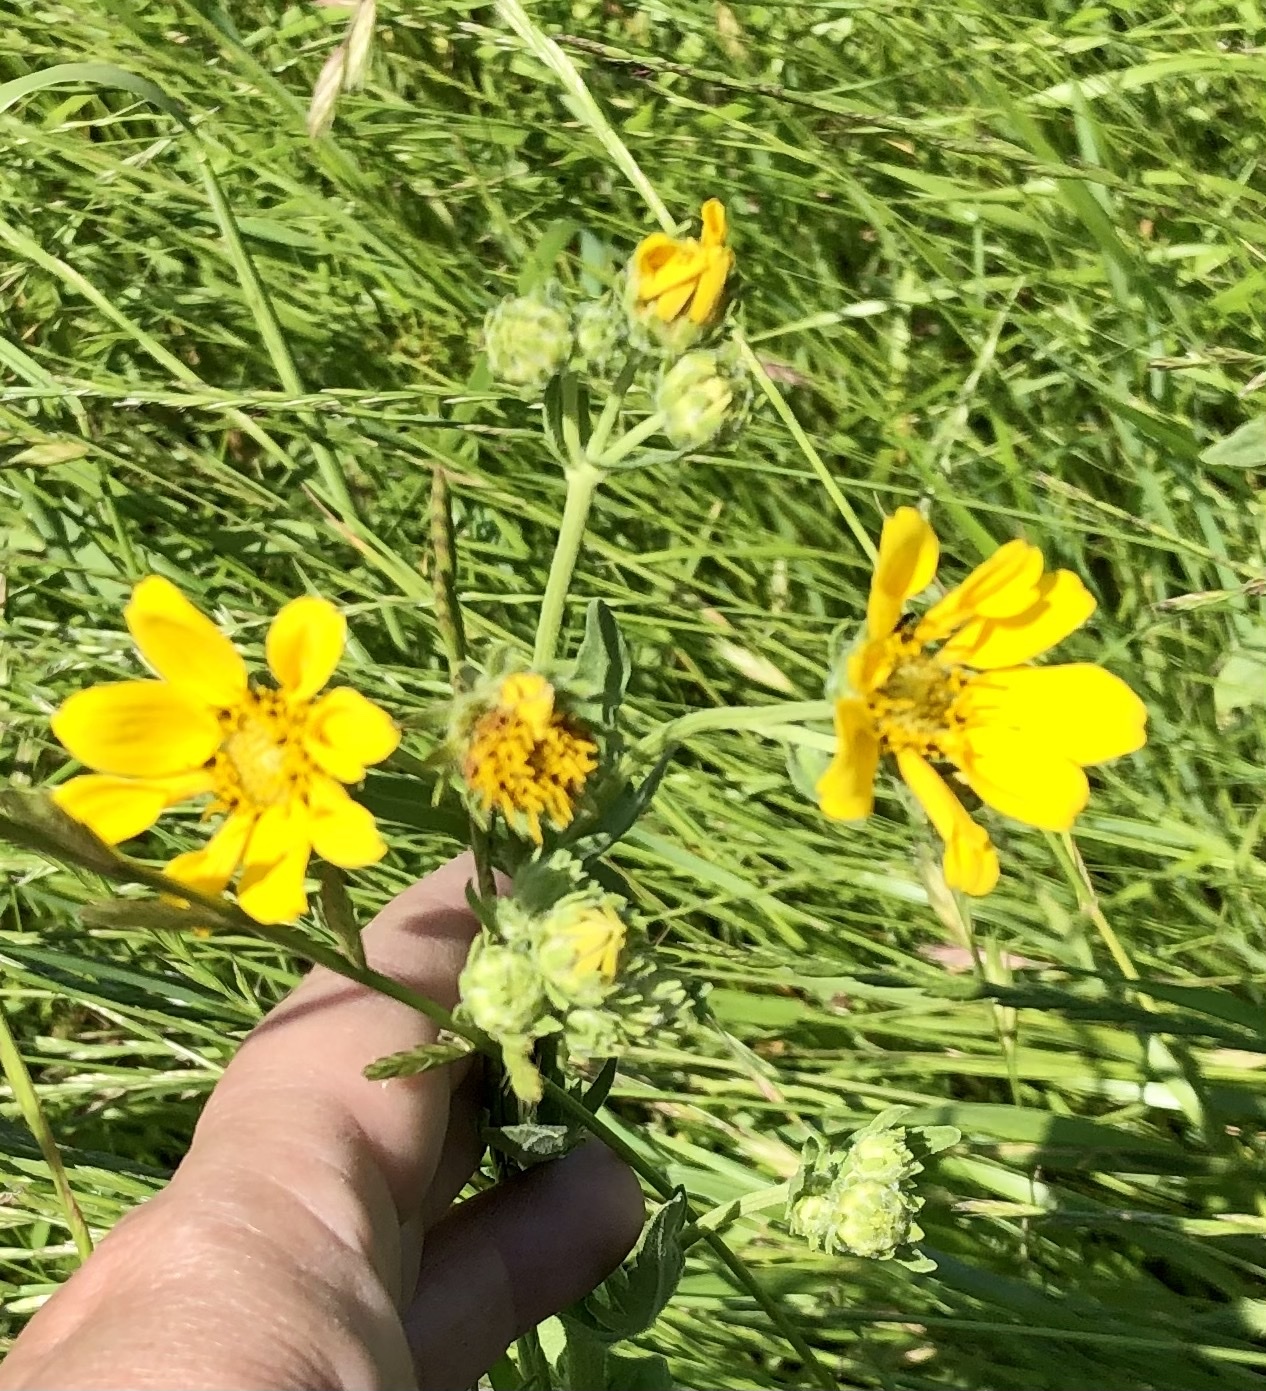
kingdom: Plantae
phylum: Tracheophyta
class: Magnoliopsida
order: Asterales
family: Asteraceae
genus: Engelmannia
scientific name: Engelmannia peristenia
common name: Engelmann's daisy
